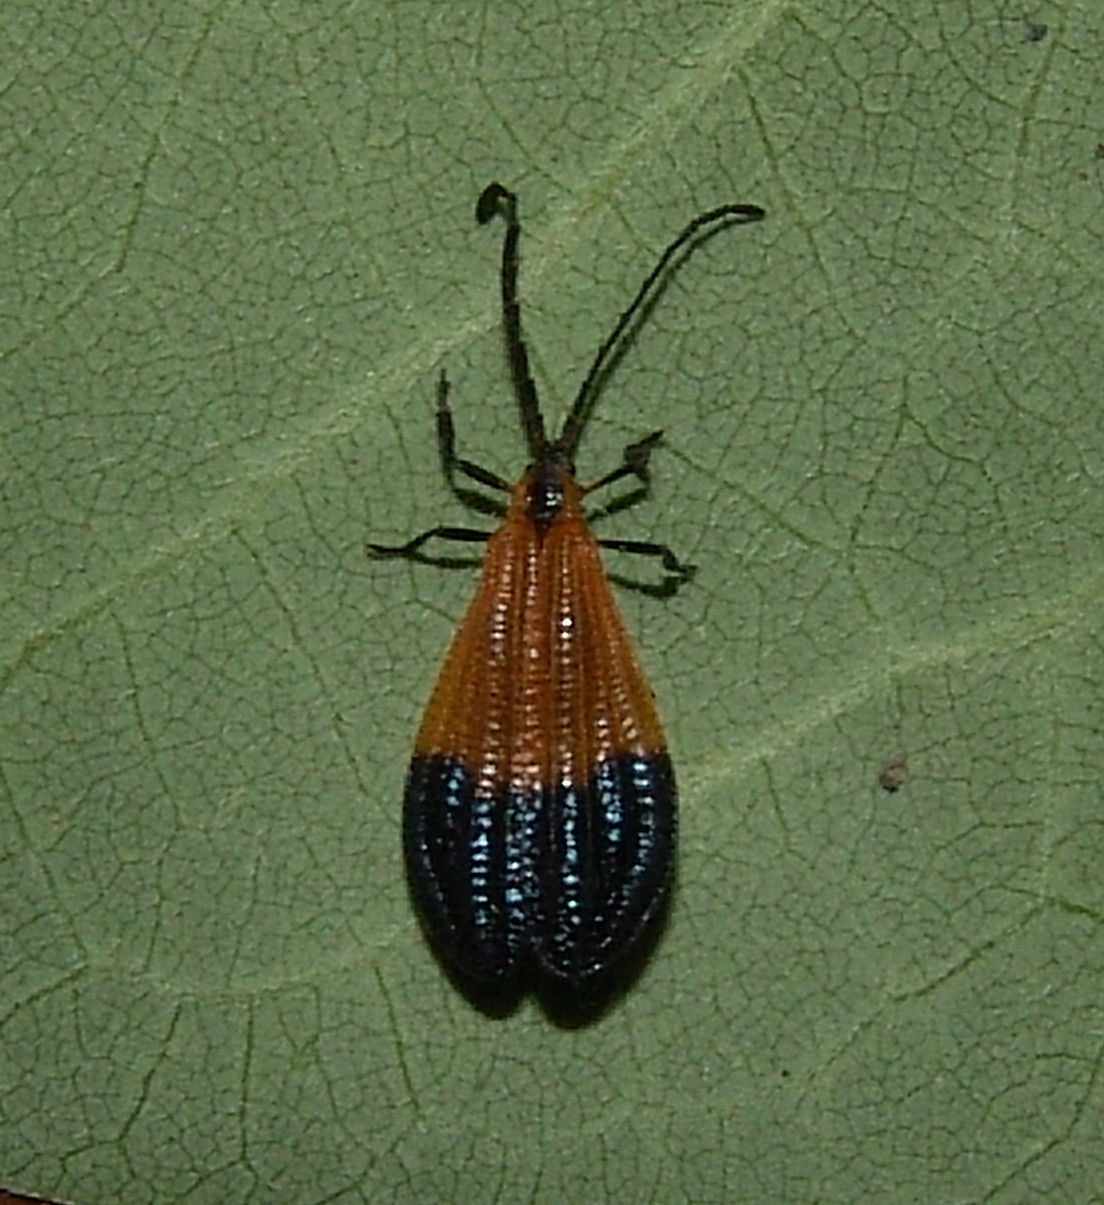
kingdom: Animalia
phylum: Arthropoda
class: Insecta
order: Coleoptera
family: Lycidae
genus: Calopteron
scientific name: Calopteron terminale
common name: End band net-winged beetle
